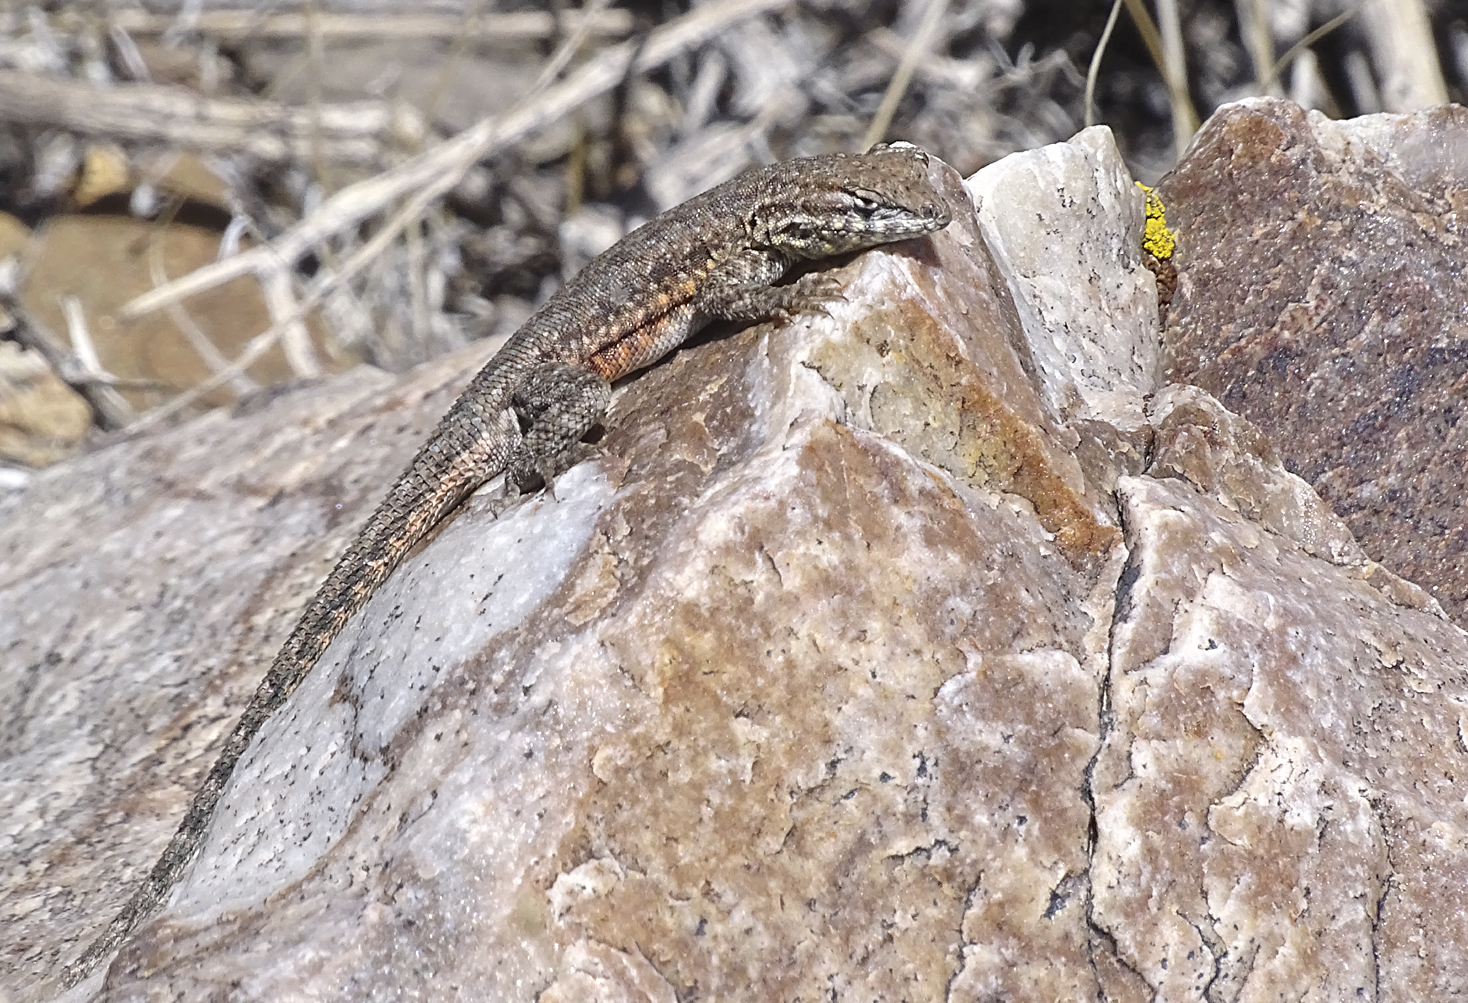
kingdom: Animalia
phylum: Chordata
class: Squamata
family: Phrynosomatidae
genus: Uta
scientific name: Uta stansburiana
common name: Side-blotched lizard
